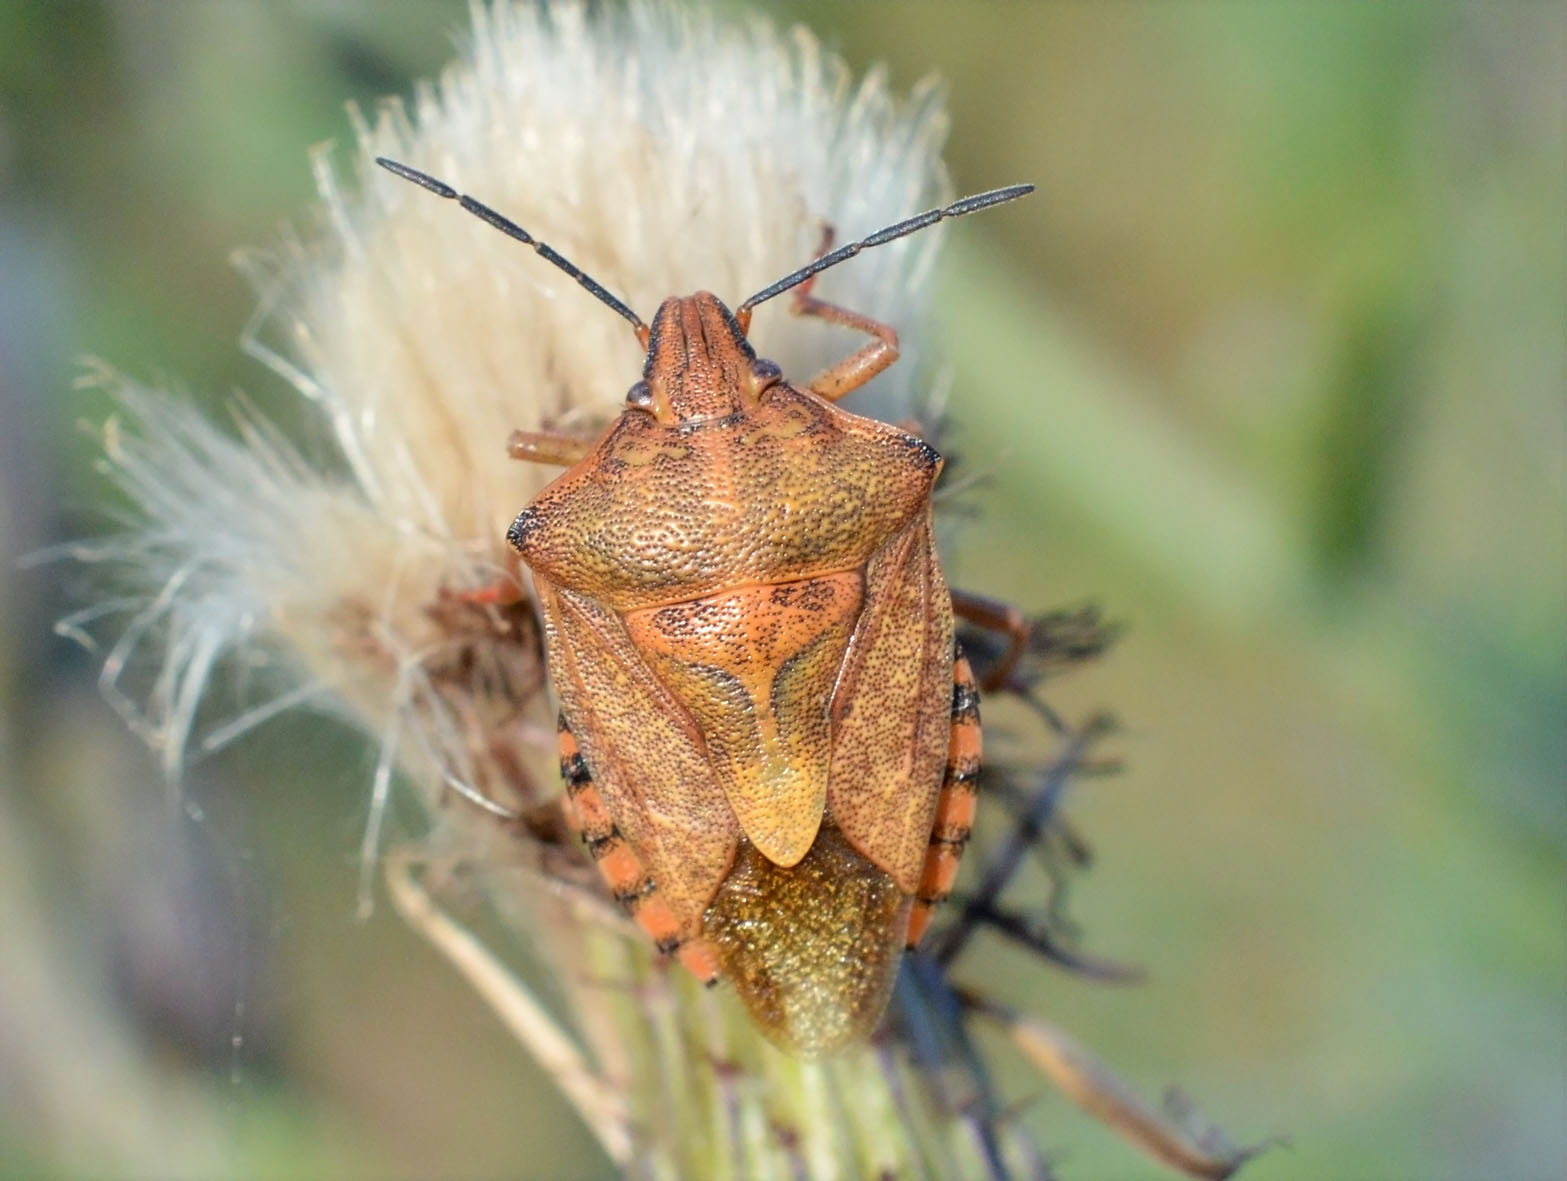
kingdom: Animalia
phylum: Arthropoda
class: Insecta
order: Hemiptera
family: Pentatomidae
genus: Carpocoris
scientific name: Carpocoris purpureipennis
